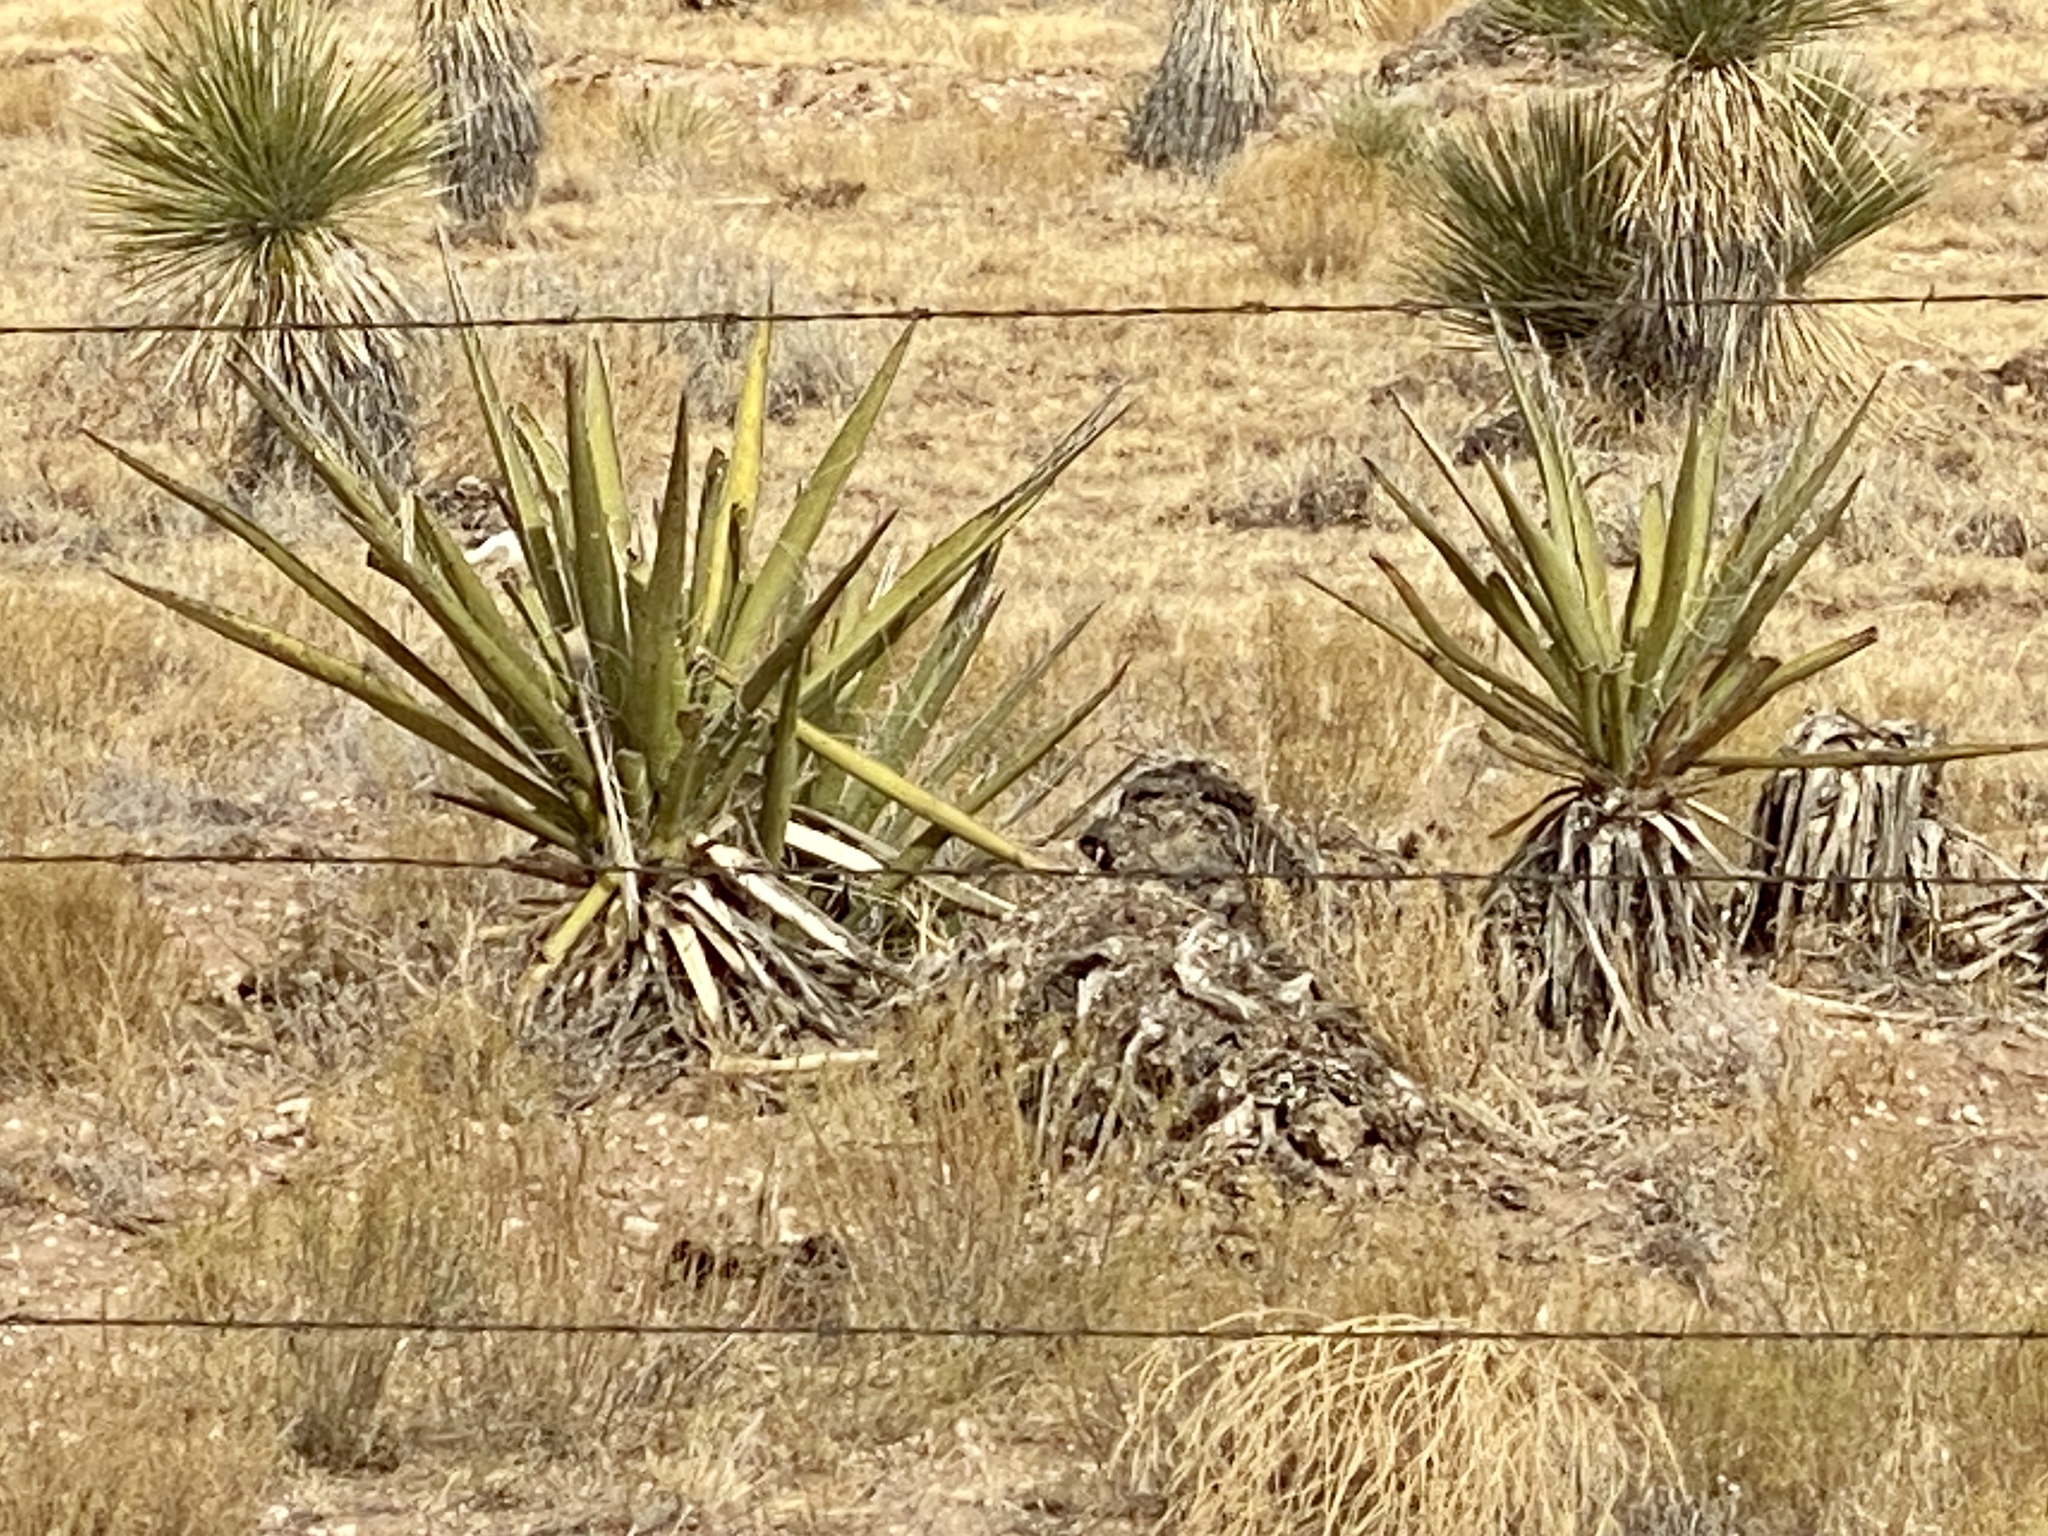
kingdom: Plantae
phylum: Tracheophyta
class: Liliopsida
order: Asparagales
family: Asparagaceae
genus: Yucca
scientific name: Yucca baccata
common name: Banana yucca
